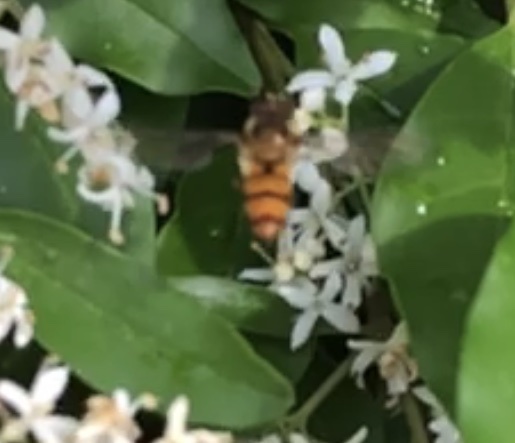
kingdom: Animalia
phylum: Arthropoda
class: Insecta
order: Diptera
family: Syrphidae
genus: Episyrphus
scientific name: Episyrphus balteatus
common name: Marmalade hoverfly
